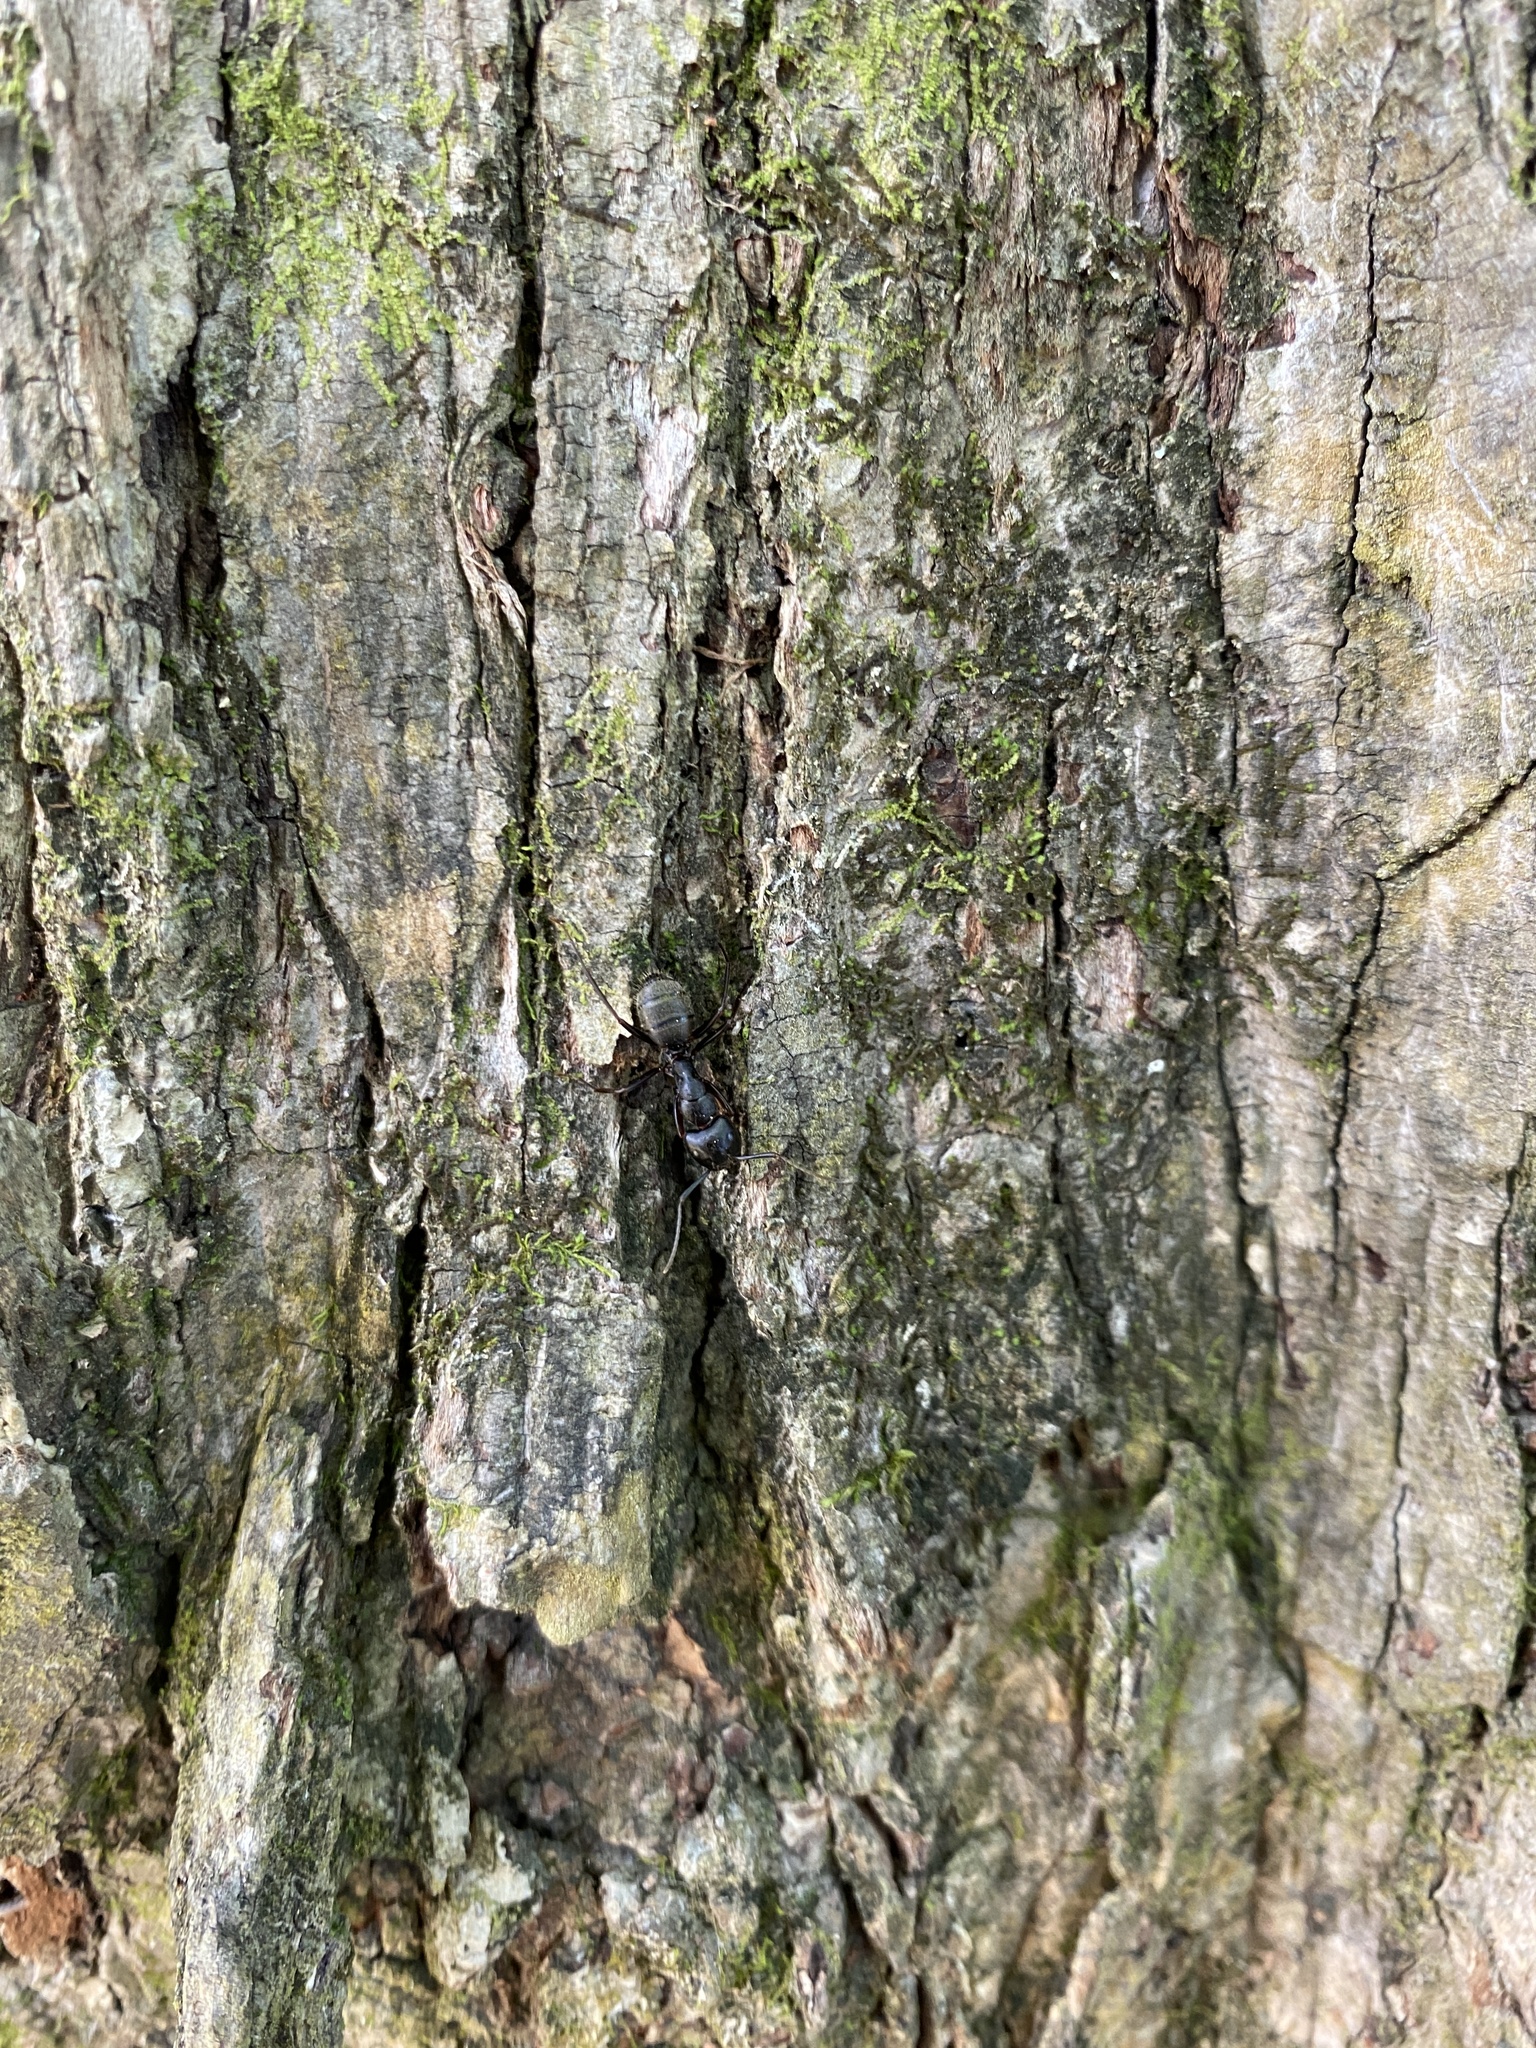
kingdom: Animalia
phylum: Arthropoda
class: Insecta
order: Hymenoptera
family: Formicidae
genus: Camponotus
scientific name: Camponotus pennsylvanicus
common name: Black carpenter ant
